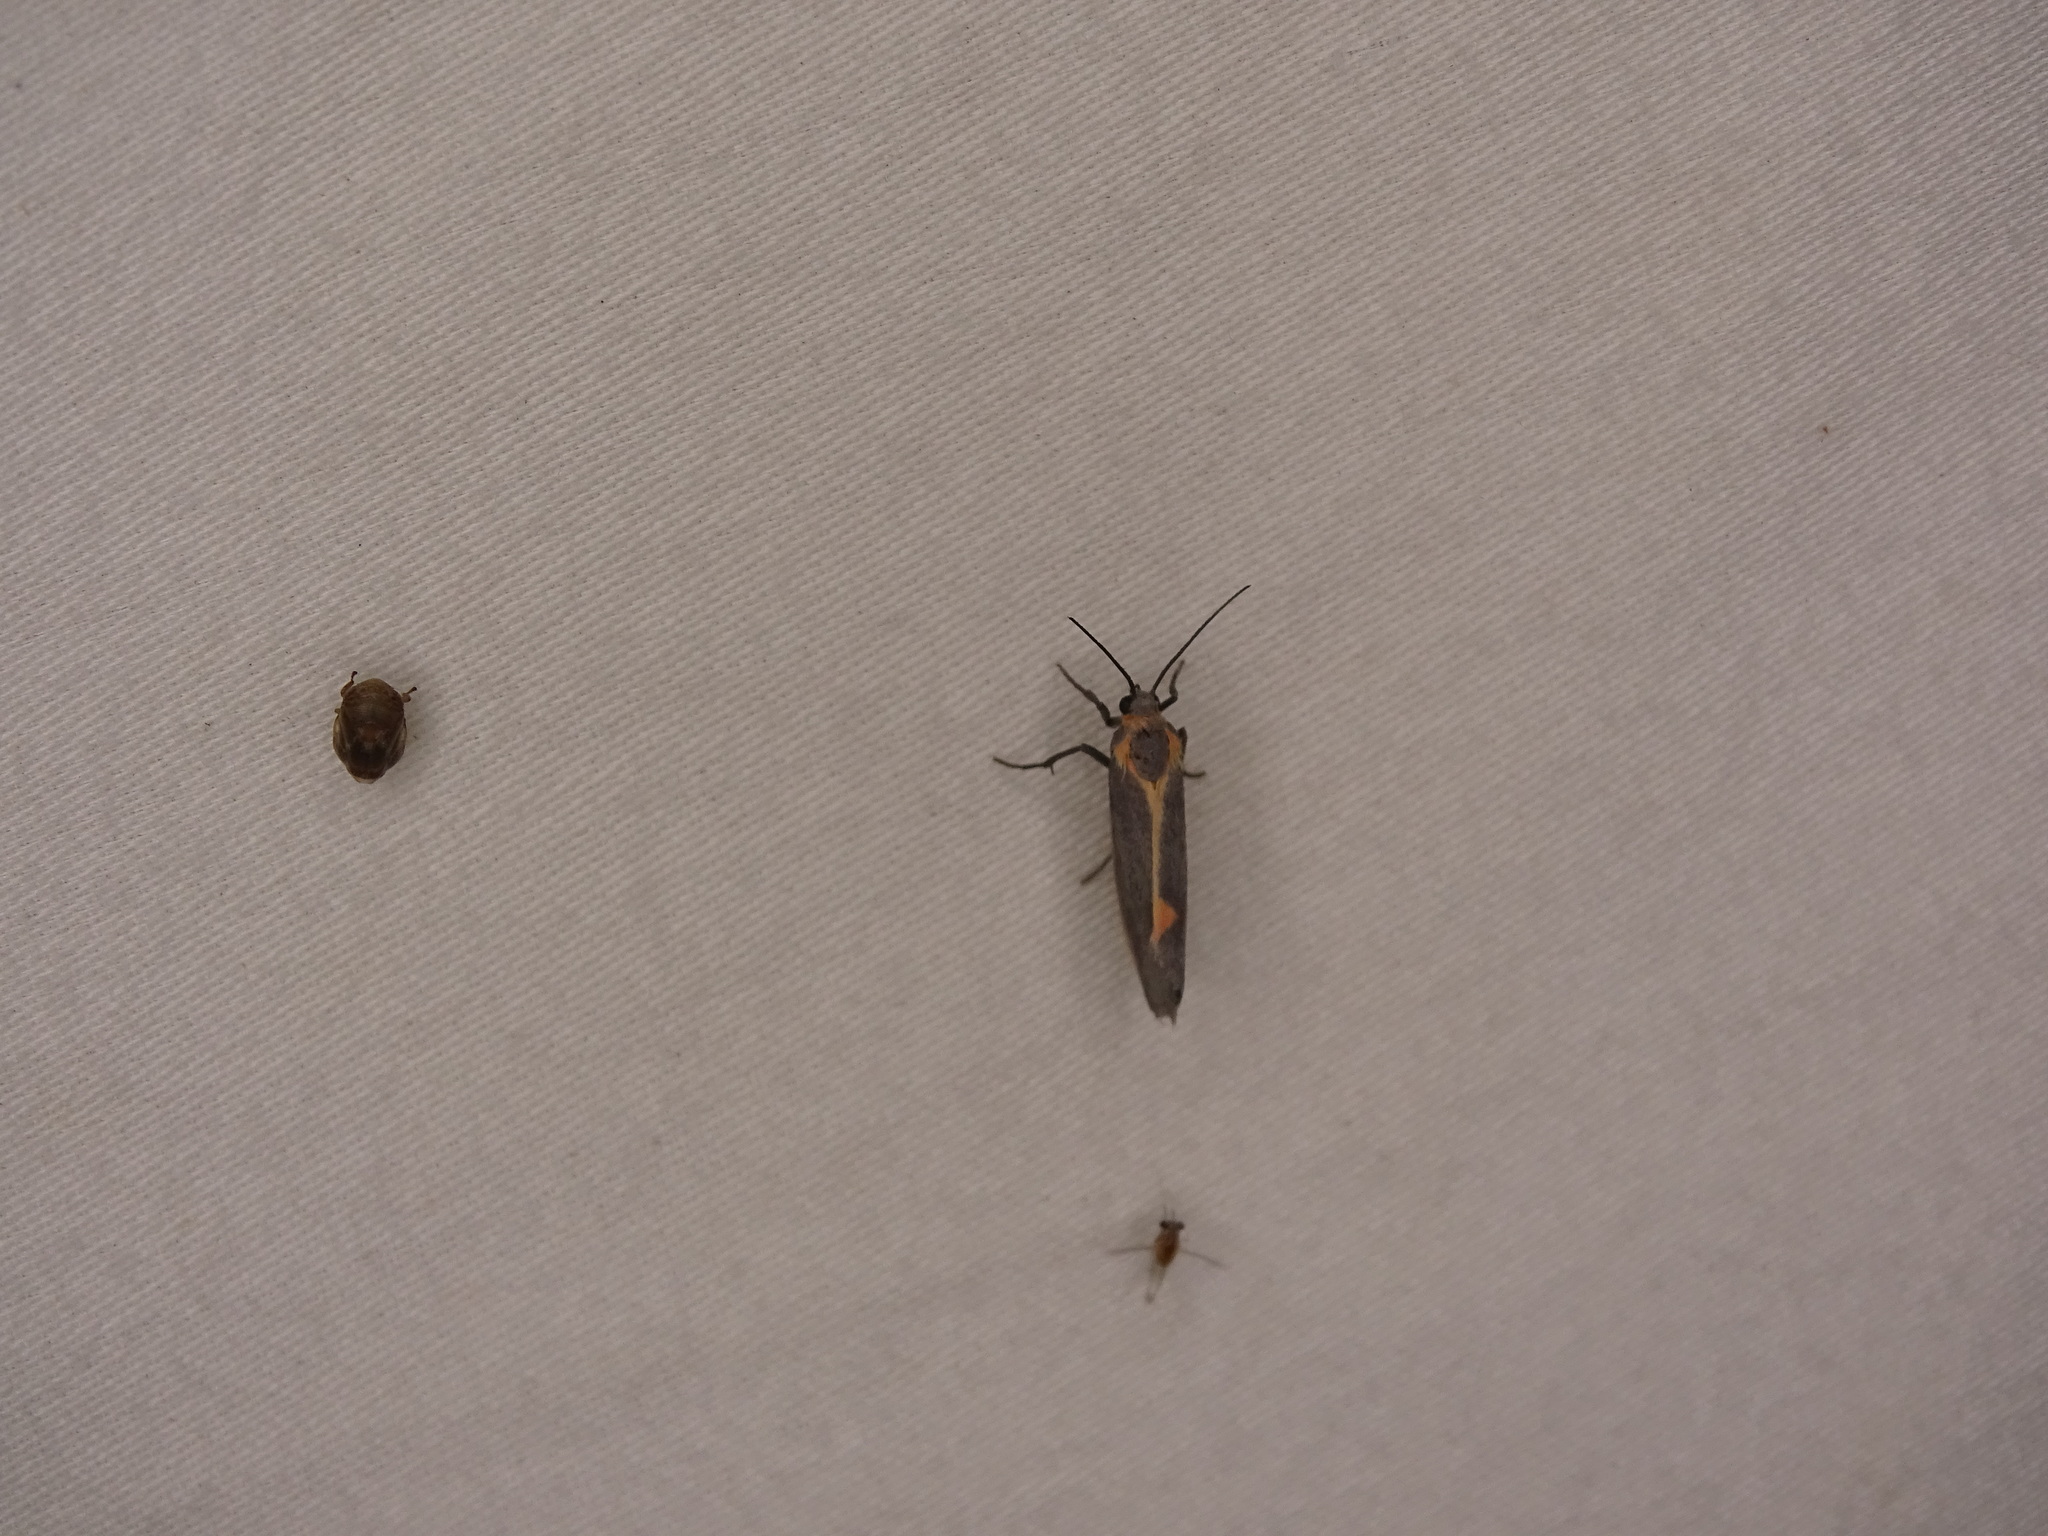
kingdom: Animalia
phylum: Arthropoda
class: Insecta
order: Lepidoptera
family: Erebidae
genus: Cisthene
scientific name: Cisthene plumbea
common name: Lead colored lichen moth
